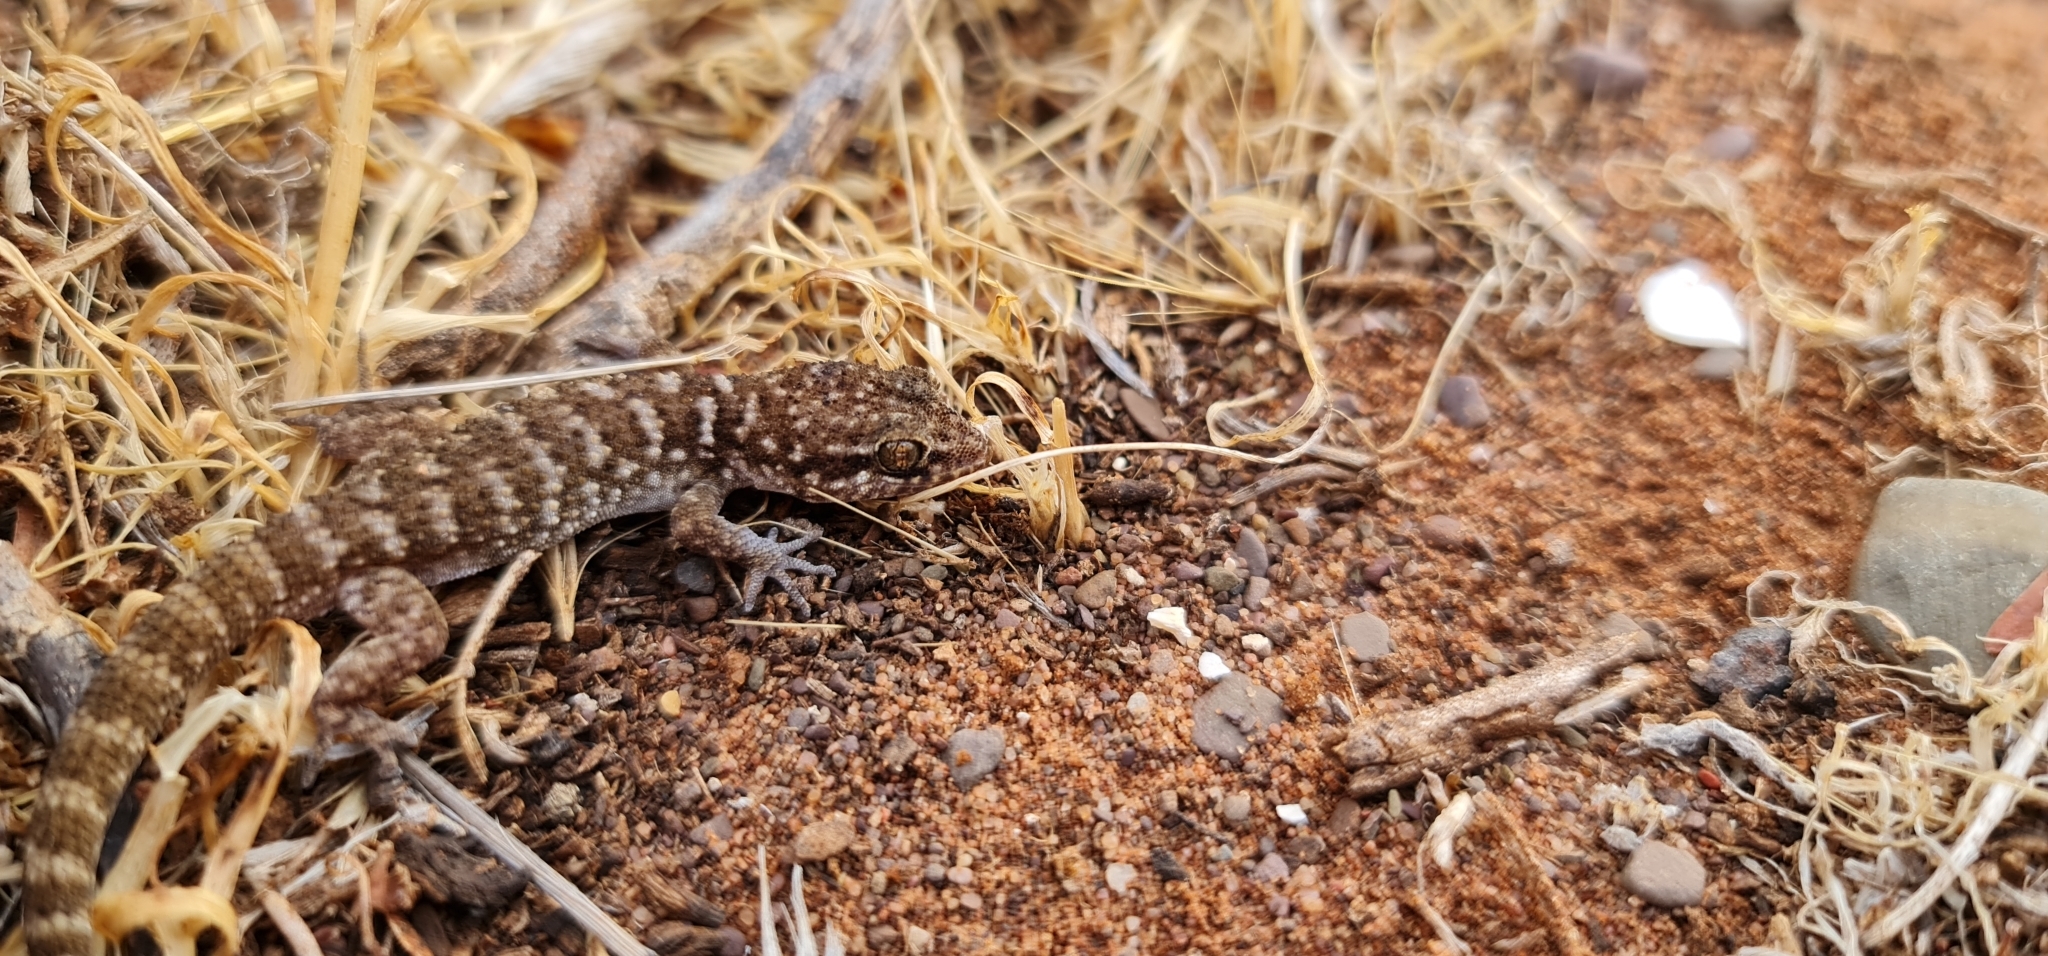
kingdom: Animalia
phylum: Chordata
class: Squamata
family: Gekkonidae
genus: Heteronotia
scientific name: Heteronotia binoei
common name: Bynoe's gecko
